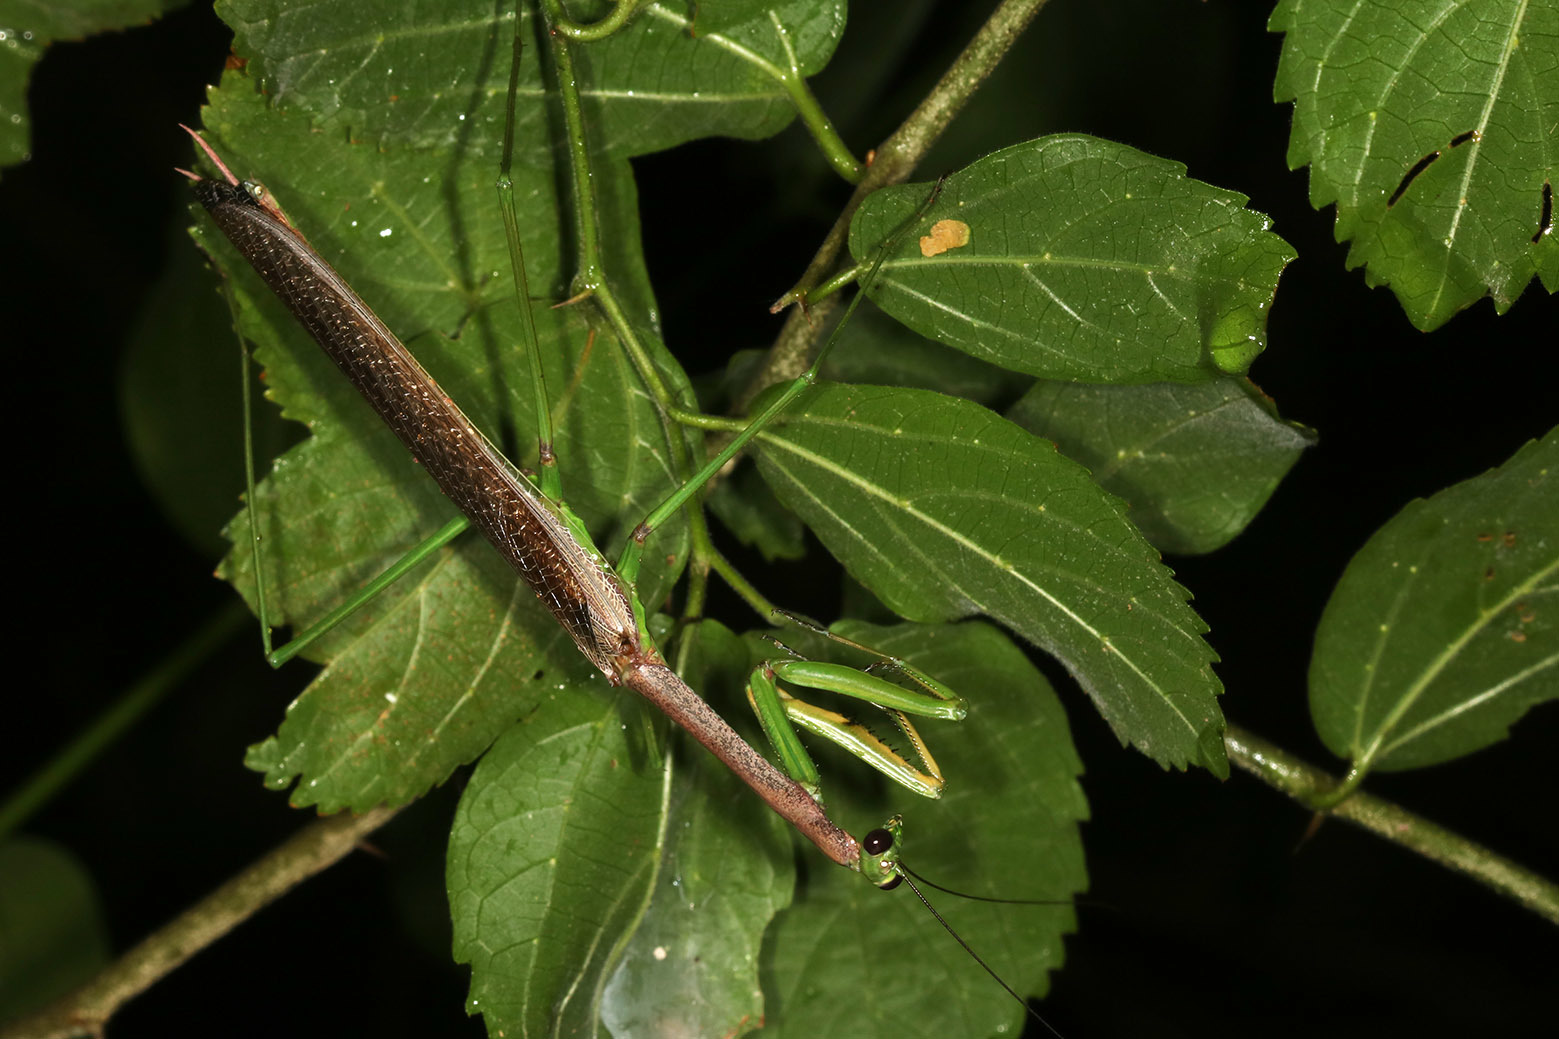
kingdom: Animalia
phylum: Arthropoda
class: Insecta
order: Mantodea
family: Coptopterygidae
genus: Coptopteryx
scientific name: Coptopteryx thoracica
